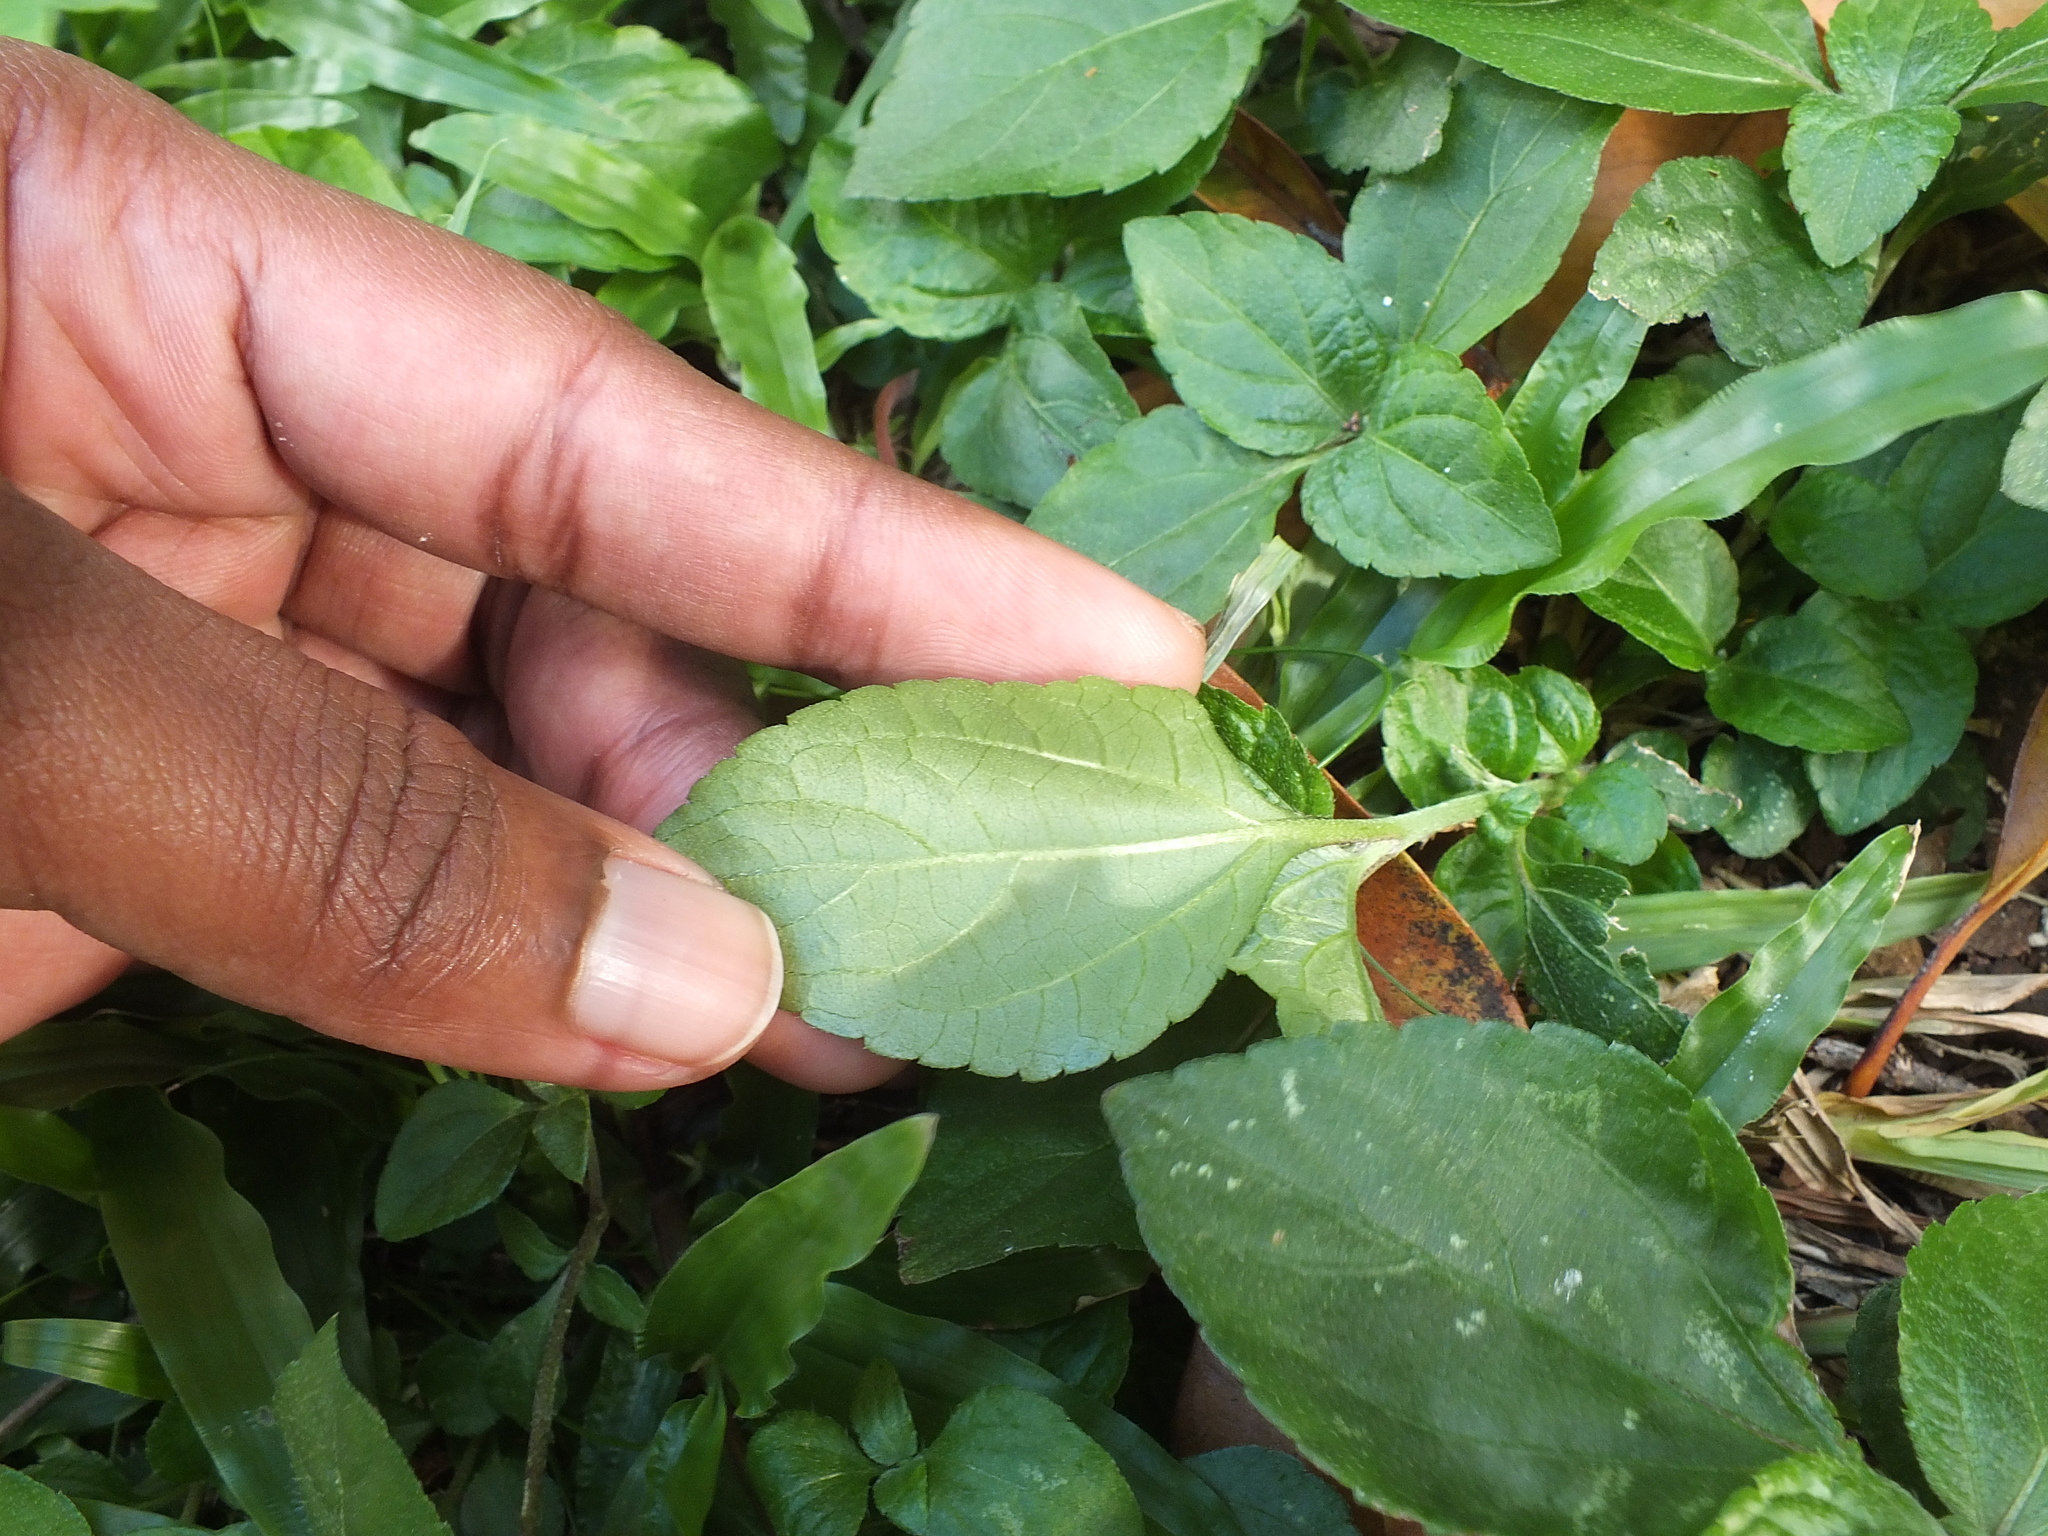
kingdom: Plantae
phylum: Tracheophyta
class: Magnoliopsida
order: Asterales
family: Asteraceae
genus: Synedrella
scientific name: Synedrella nodiflora
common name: Nodeweed
